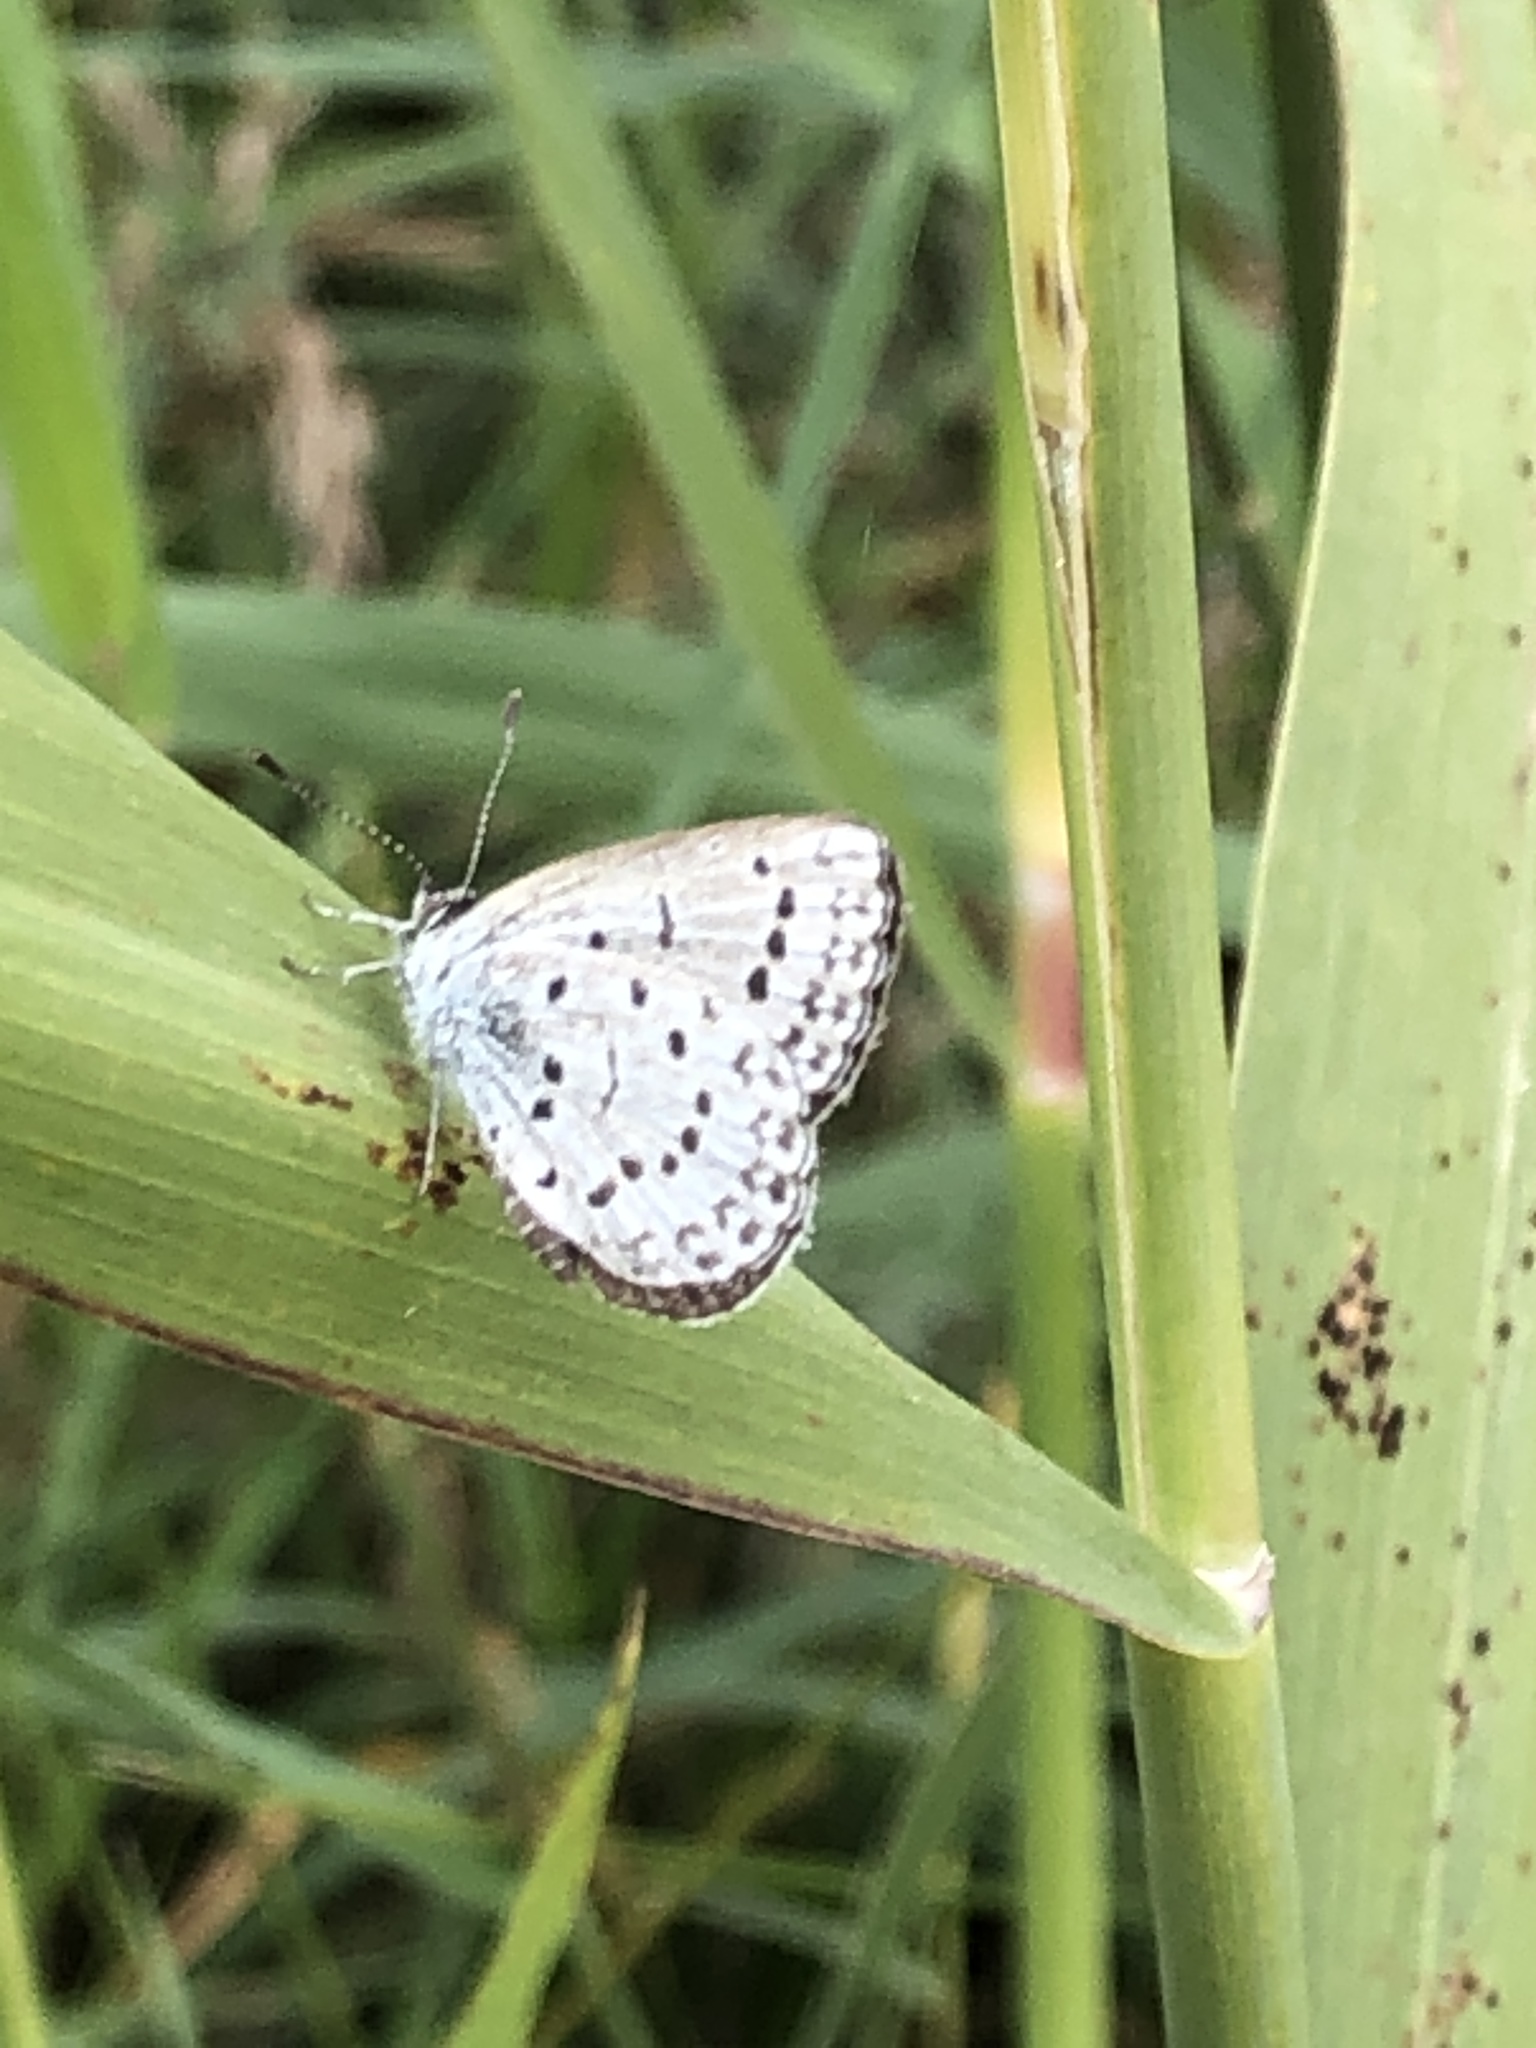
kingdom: Animalia
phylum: Arthropoda
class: Insecta
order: Lepidoptera
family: Lycaenidae
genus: Pseudozizeeria
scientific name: Pseudozizeeria maha
